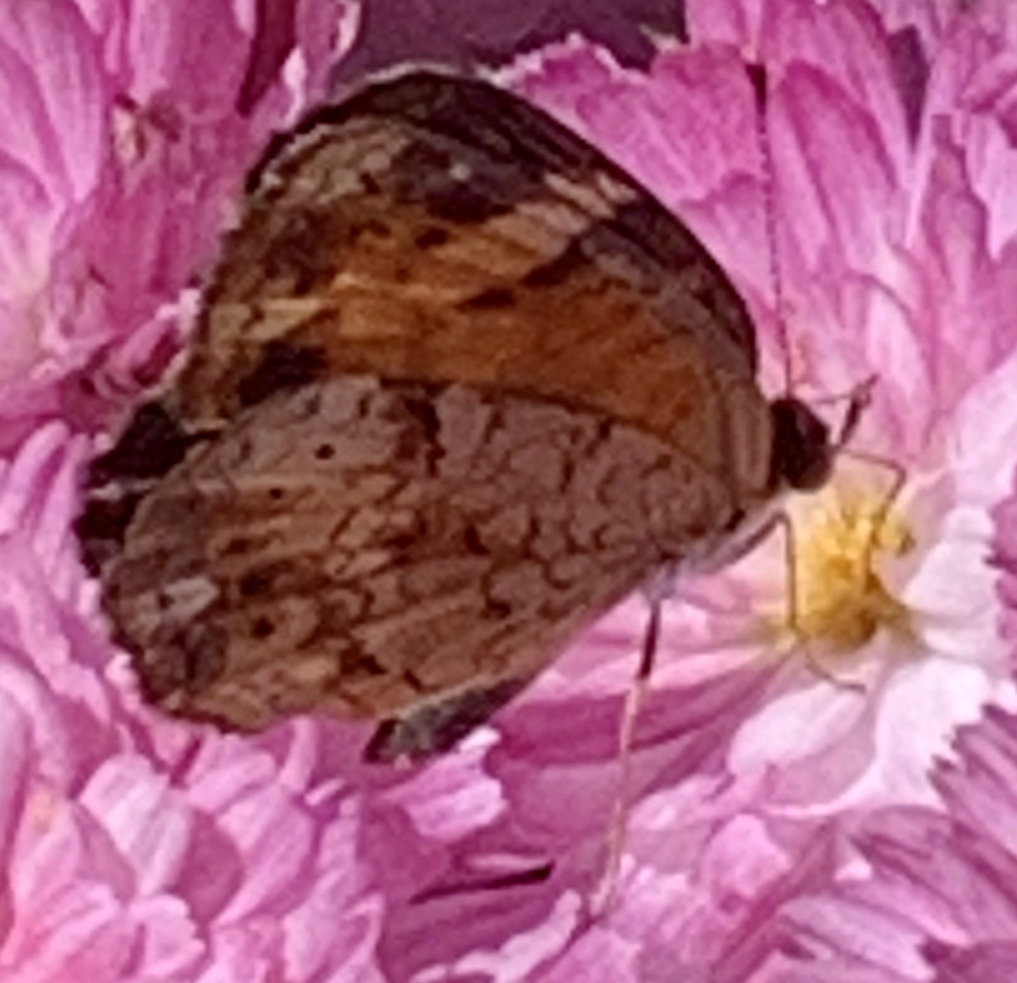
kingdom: Animalia
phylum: Arthropoda
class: Insecta
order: Lepidoptera
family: Nymphalidae
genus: Phyciodes
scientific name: Phyciodes tharos
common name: Pearl crescent
